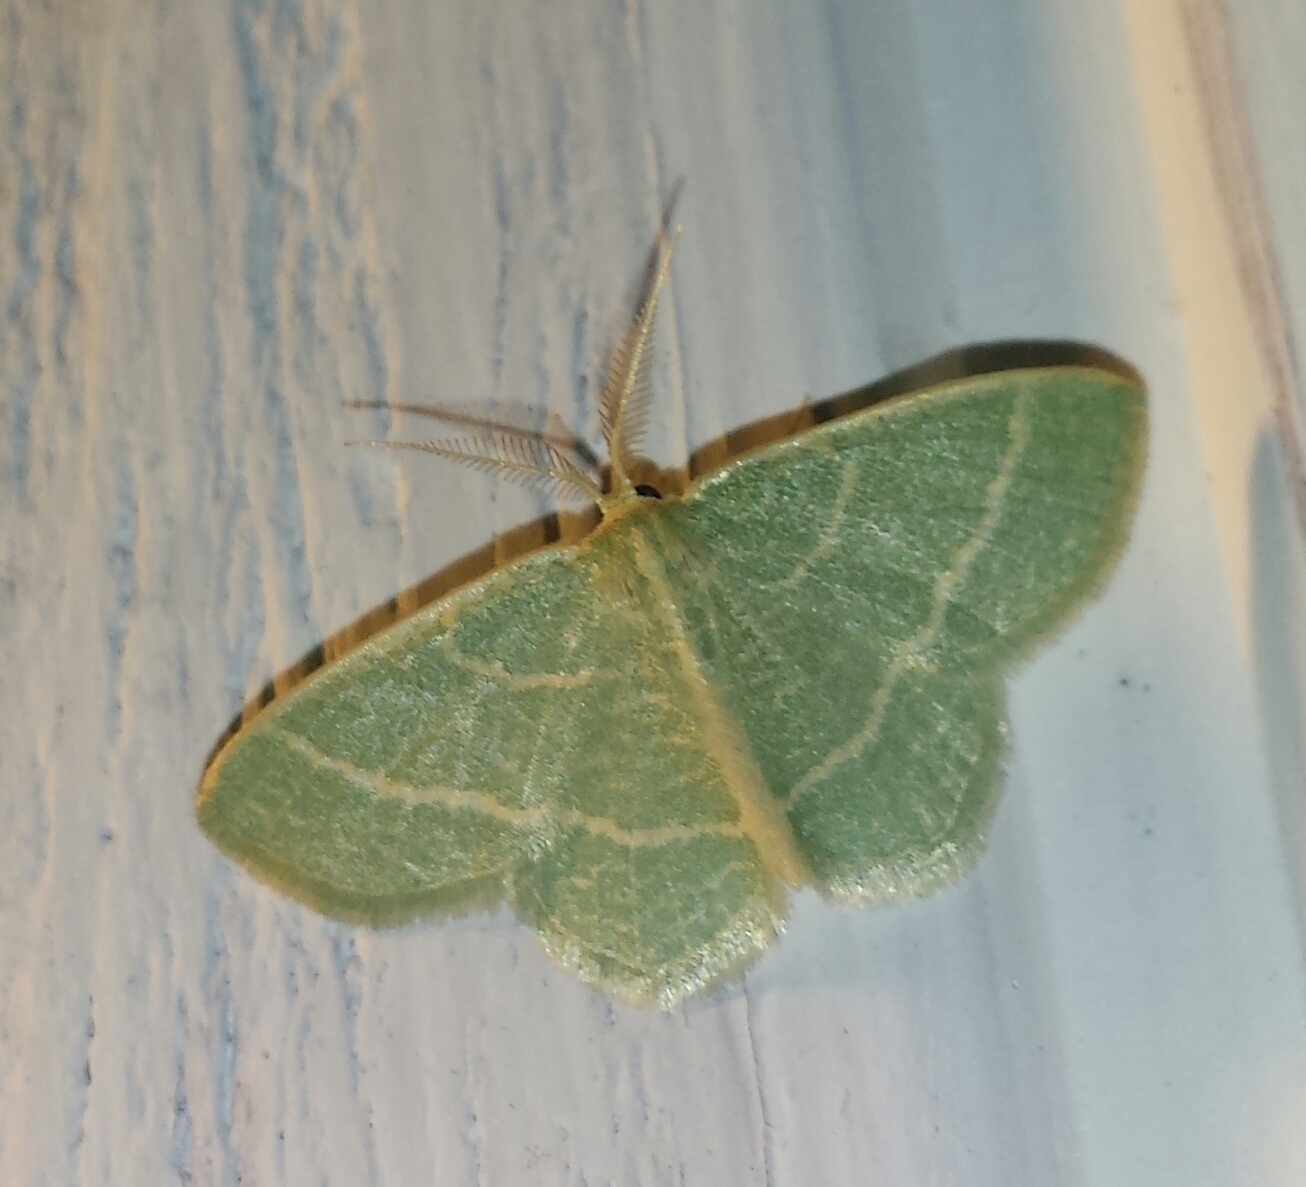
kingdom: Animalia
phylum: Arthropoda
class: Insecta
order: Lepidoptera
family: Geometridae
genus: Chlorochlamys
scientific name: Chlorochlamys chloroleucaria
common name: Blackberry looper
